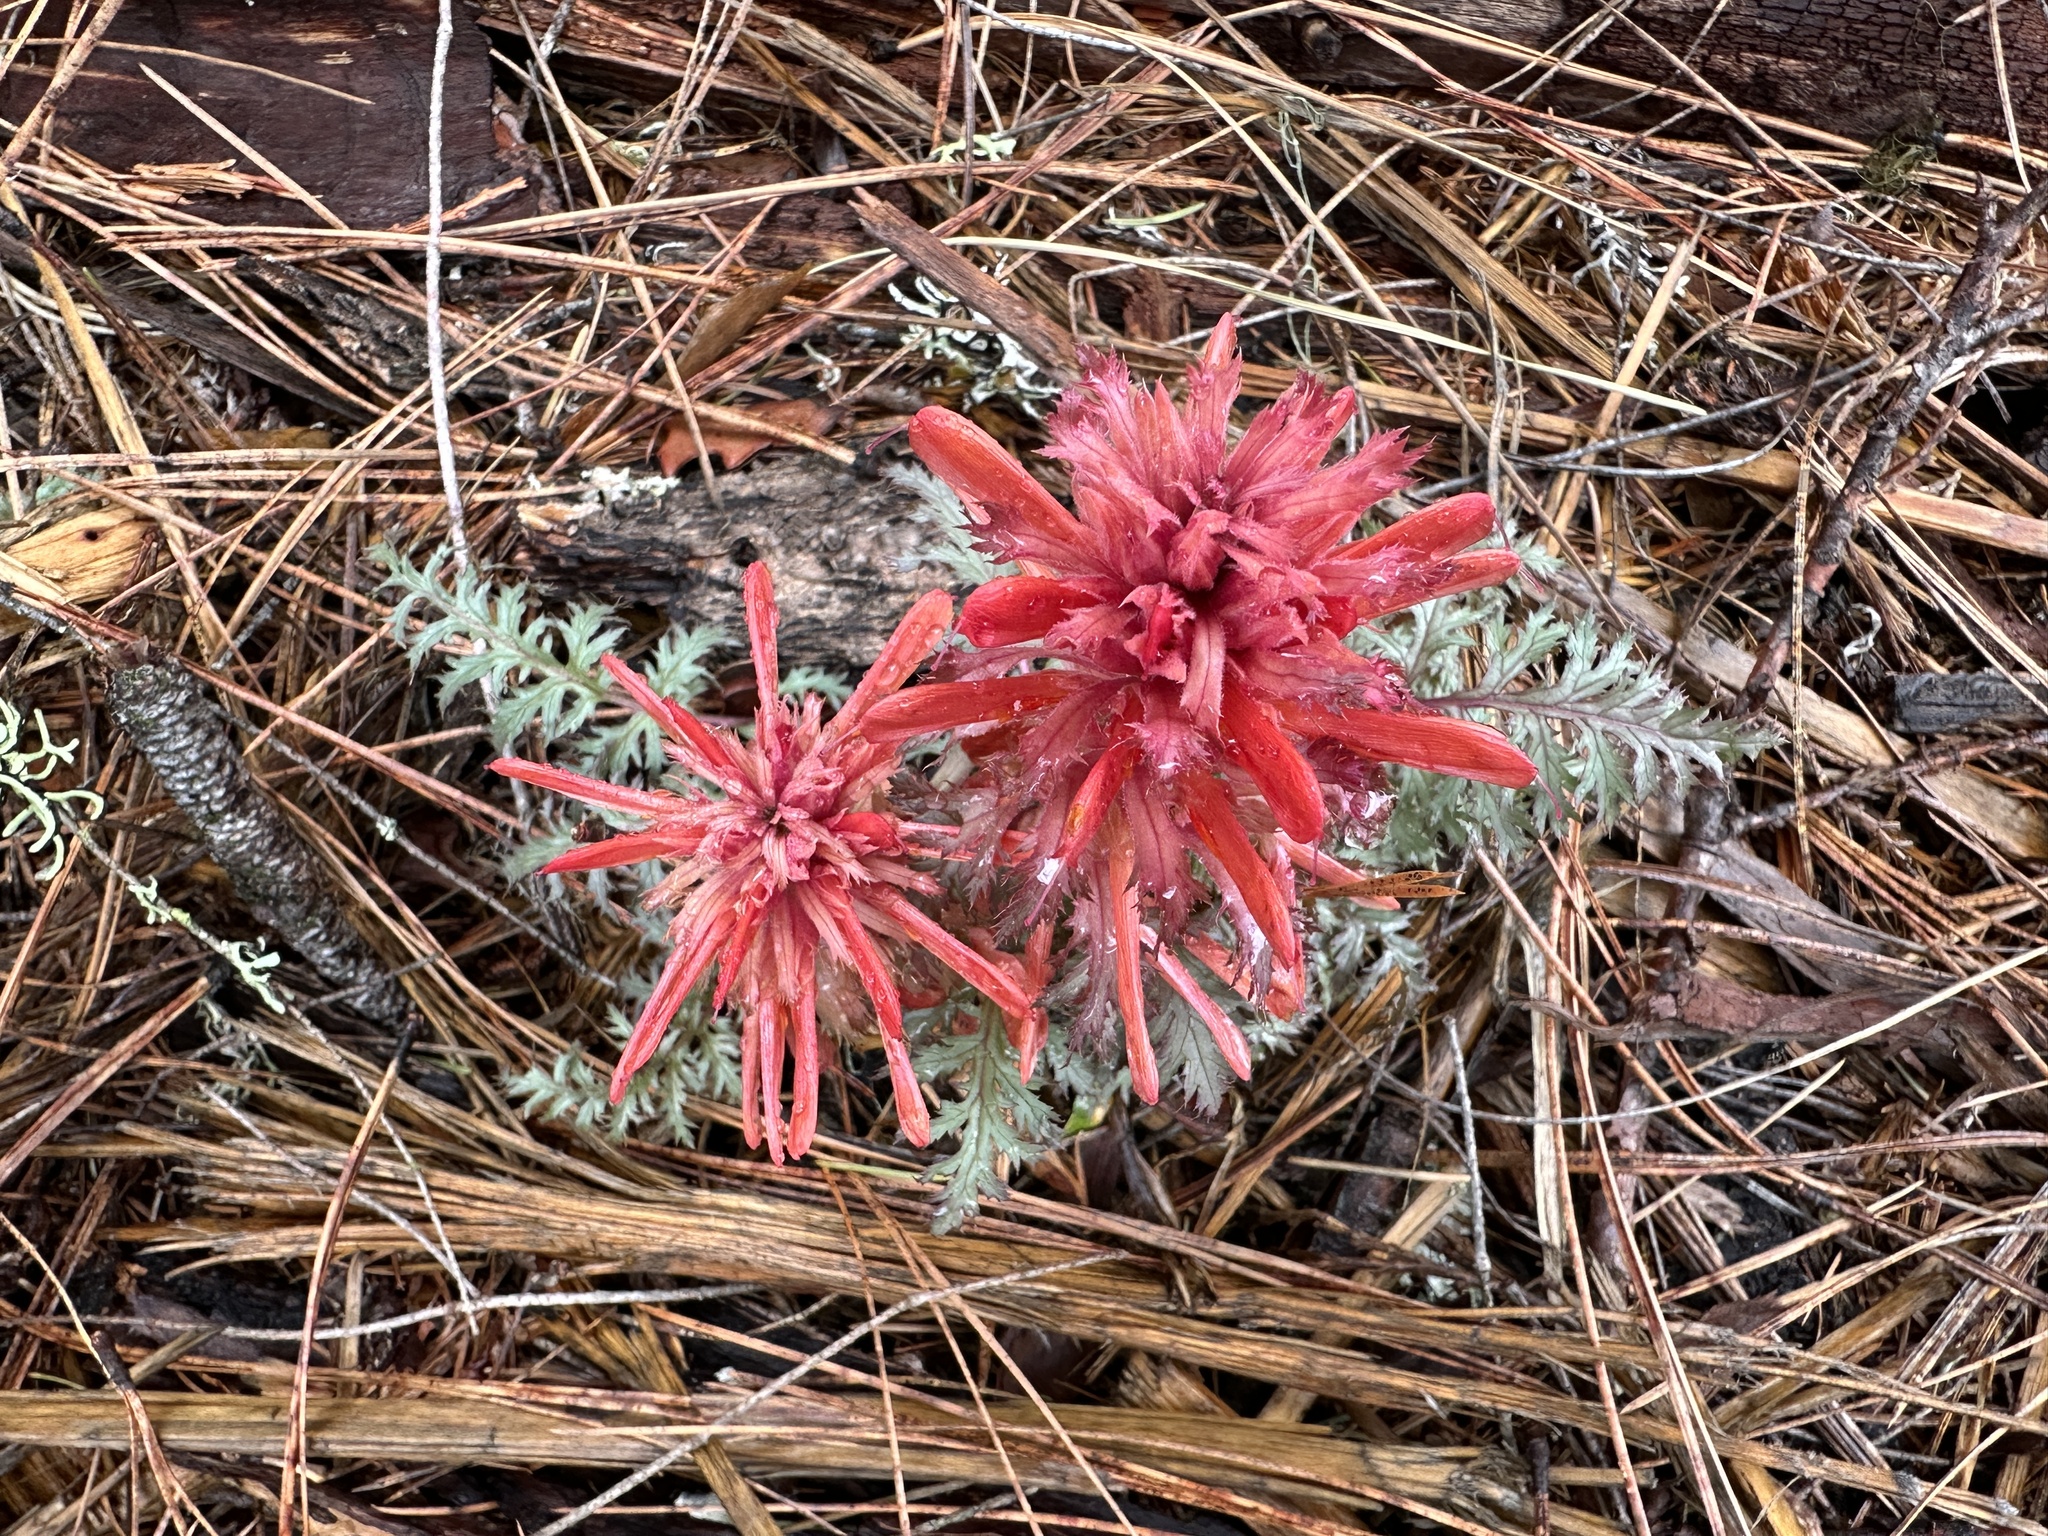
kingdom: Plantae
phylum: Tracheophyta
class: Magnoliopsida
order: Lamiales
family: Orobanchaceae
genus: Pedicularis
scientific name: Pedicularis densiflora
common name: Indian warrior
